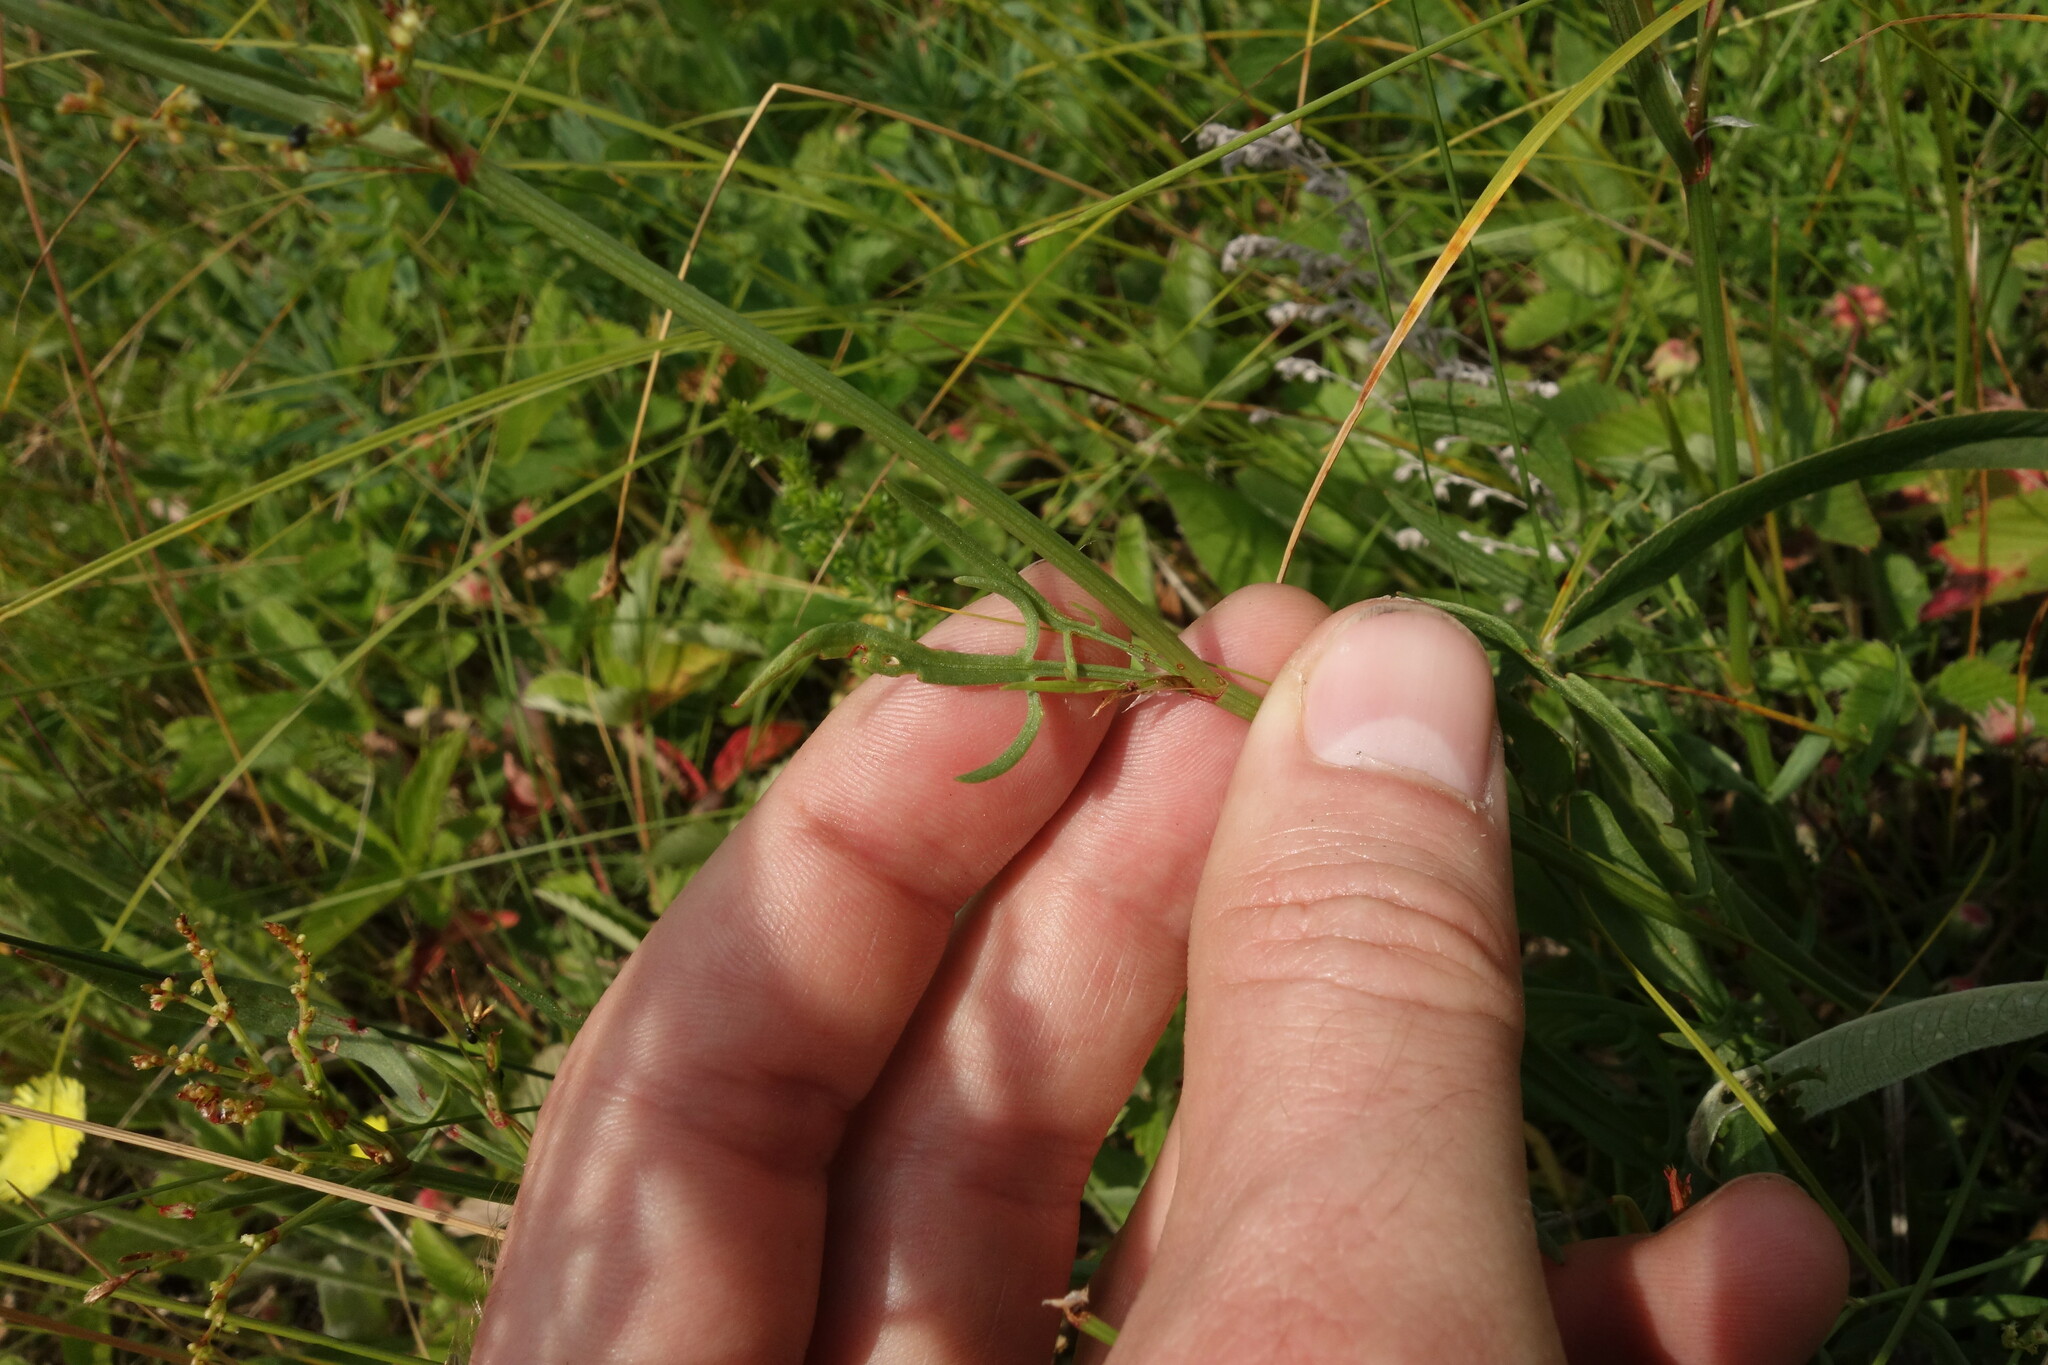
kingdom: Plantae
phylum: Tracheophyta
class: Magnoliopsida
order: Caryophyllales
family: Polygonaceae
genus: Rumex
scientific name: Rumex acetosella
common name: Common sheep sorrel
